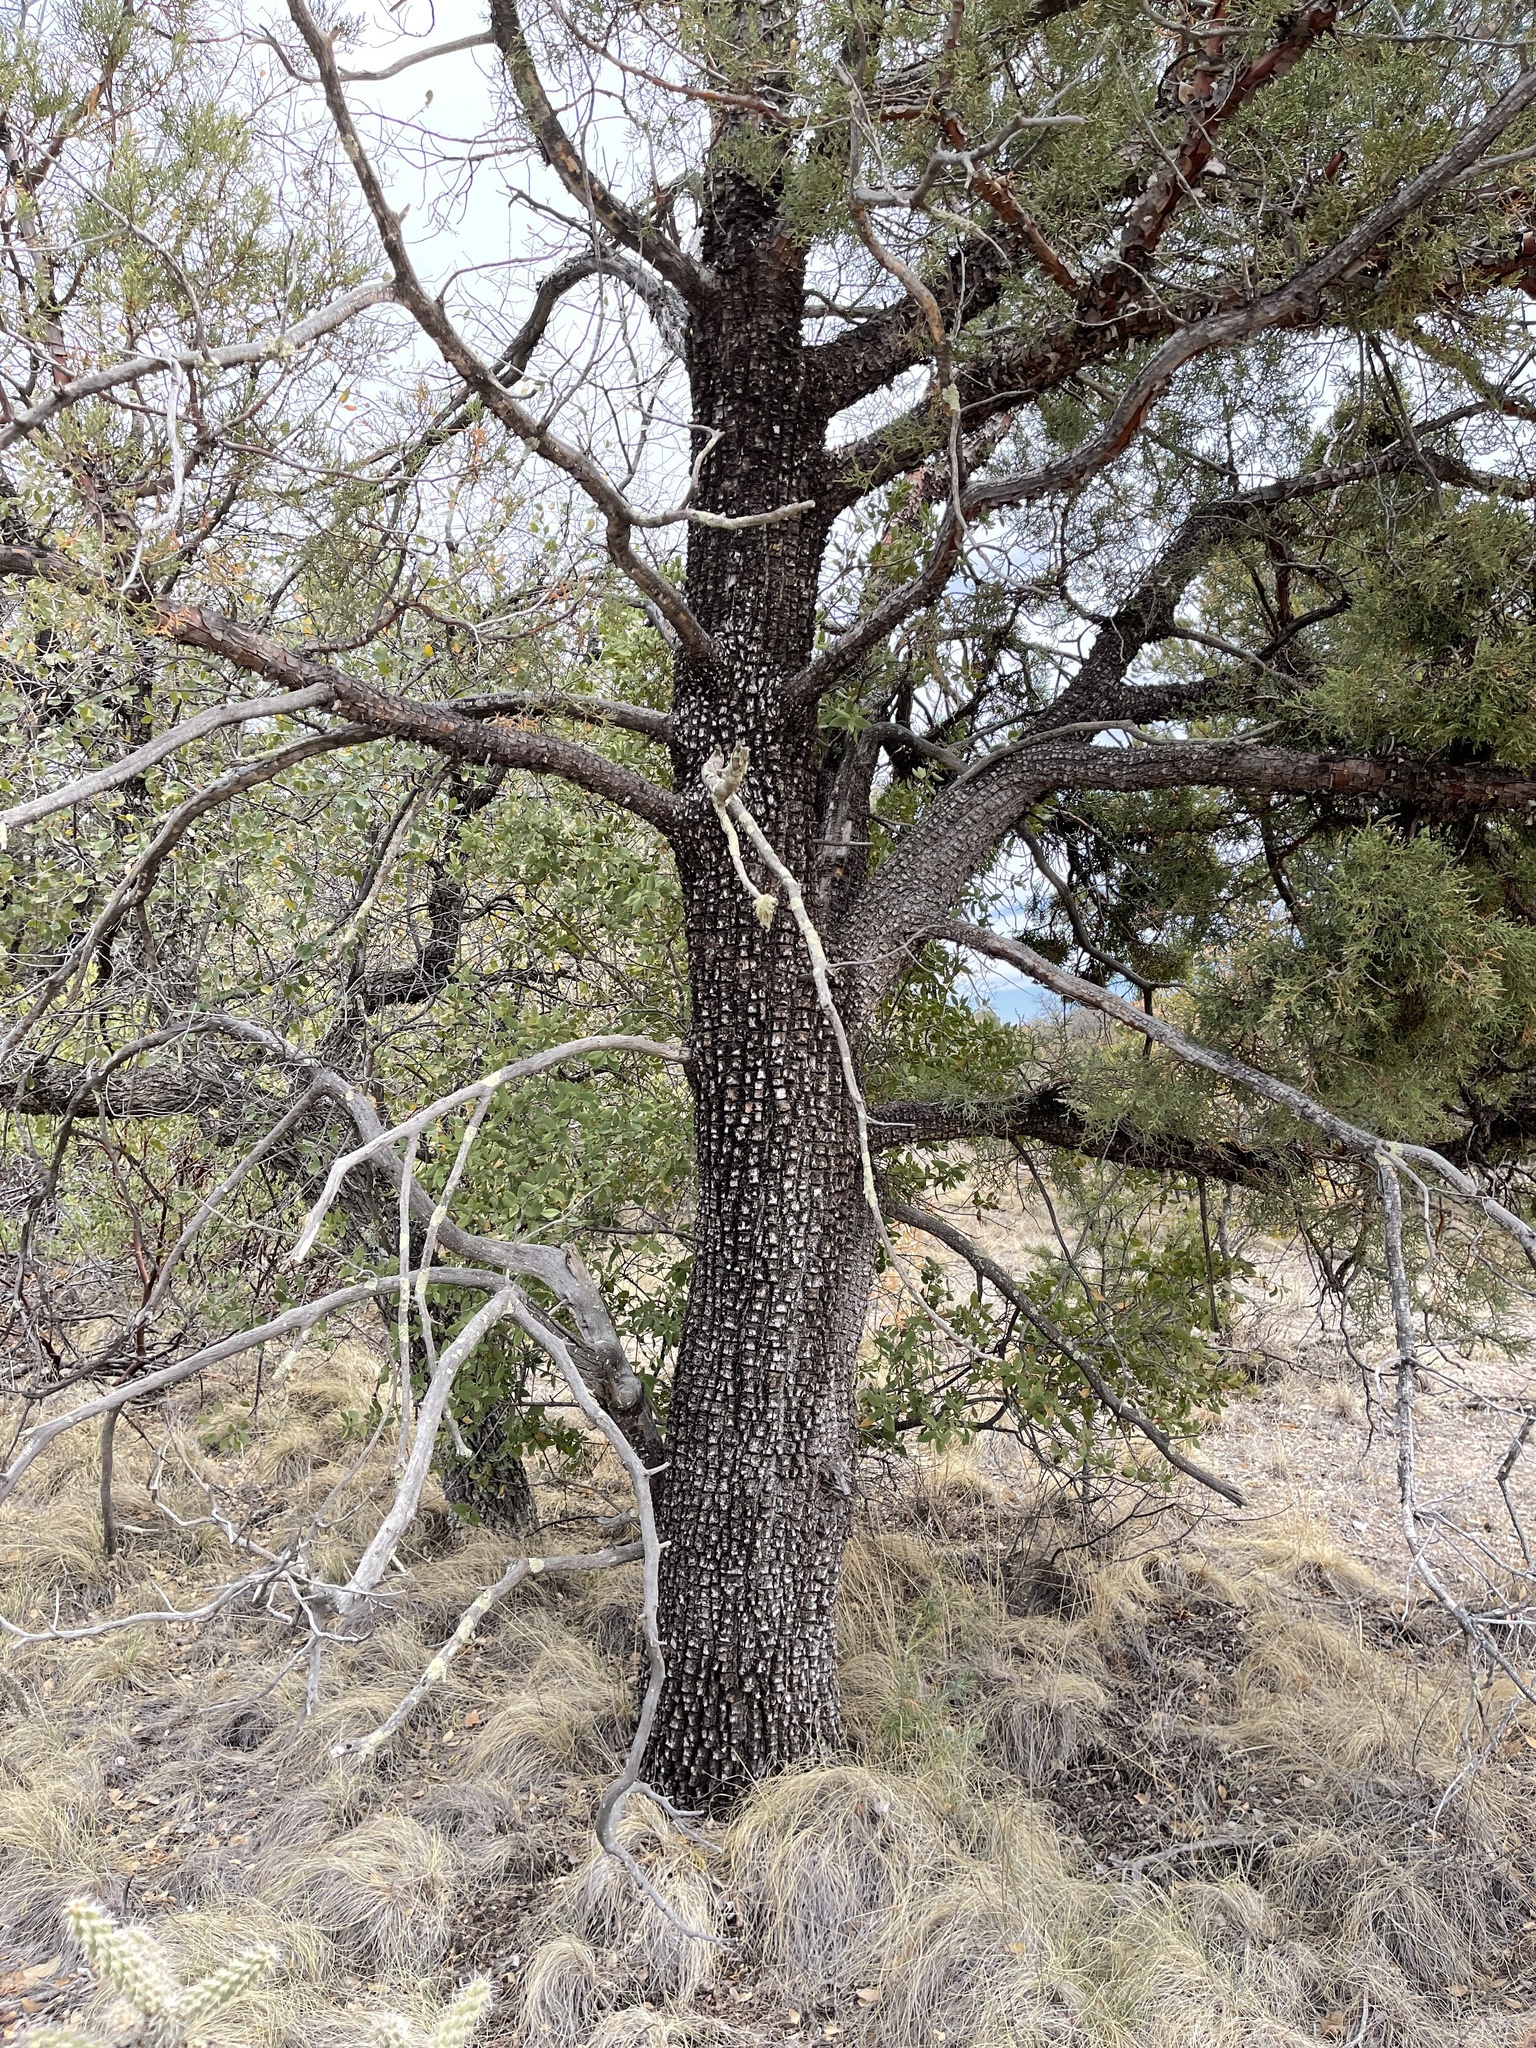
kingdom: Plantae
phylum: Tracheophyta
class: Pinopsida
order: Pinales
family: Cupressaceae
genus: Juniperus
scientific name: Juniperus deppeana
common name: Alligator juniper
